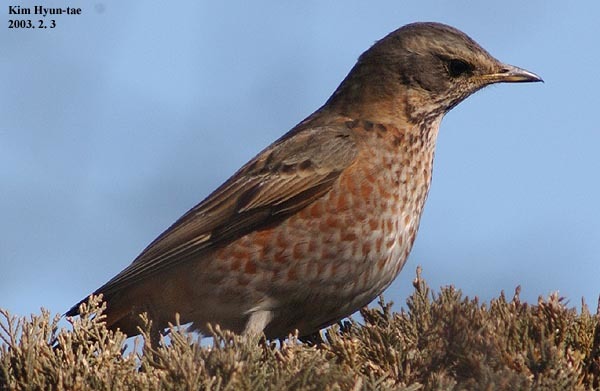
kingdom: Animalia
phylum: Chordata
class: Aves
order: Passeriformes
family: Turdidae
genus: Turdus
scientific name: Turdus naumanni
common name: Naumann's thrush
